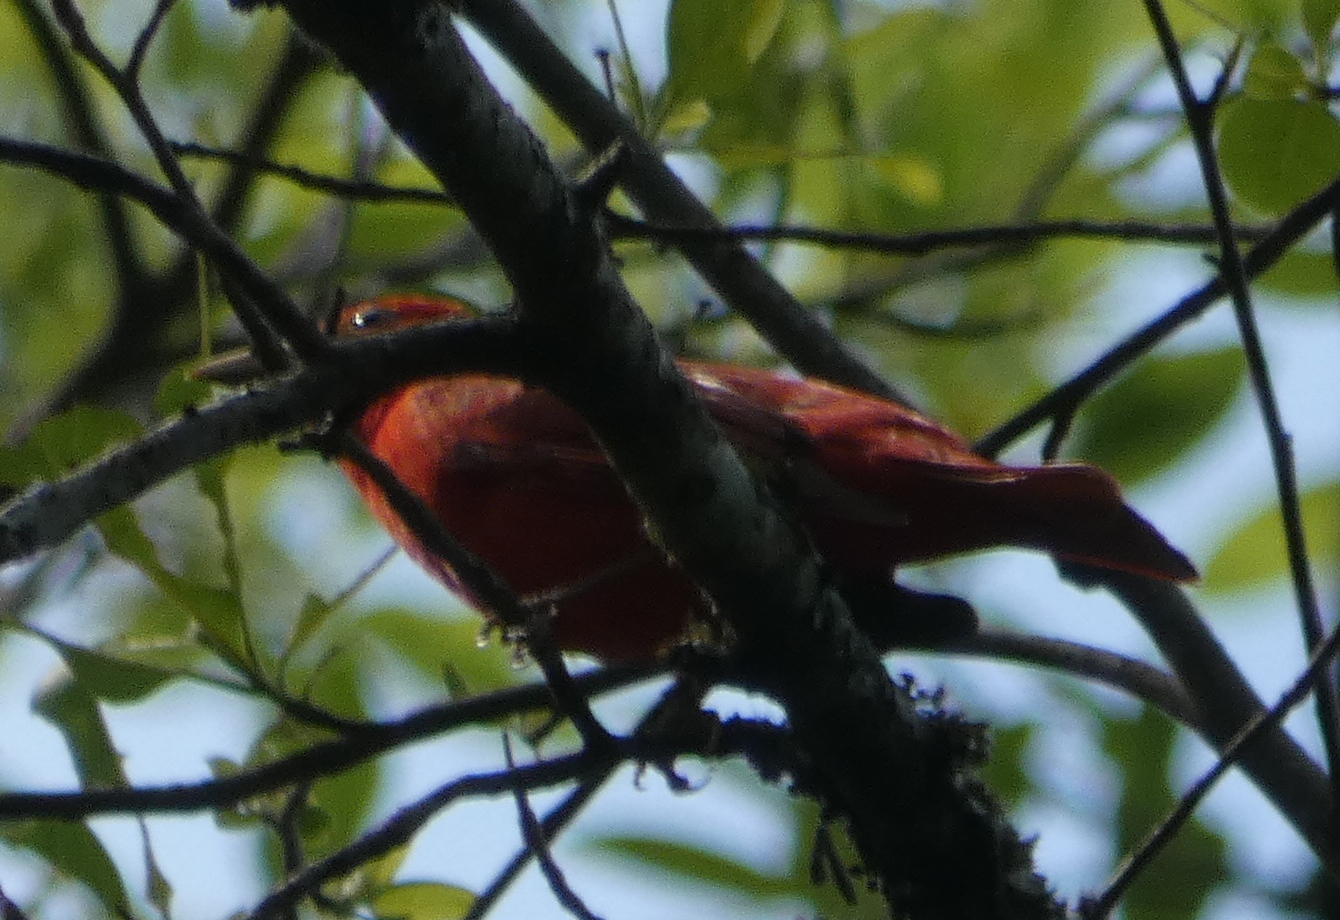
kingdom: Animalia
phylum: Chordata
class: Aves
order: Passeriformes
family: Cardinalidae
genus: Piranga
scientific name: Piranga rubra
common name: Summer tanager
